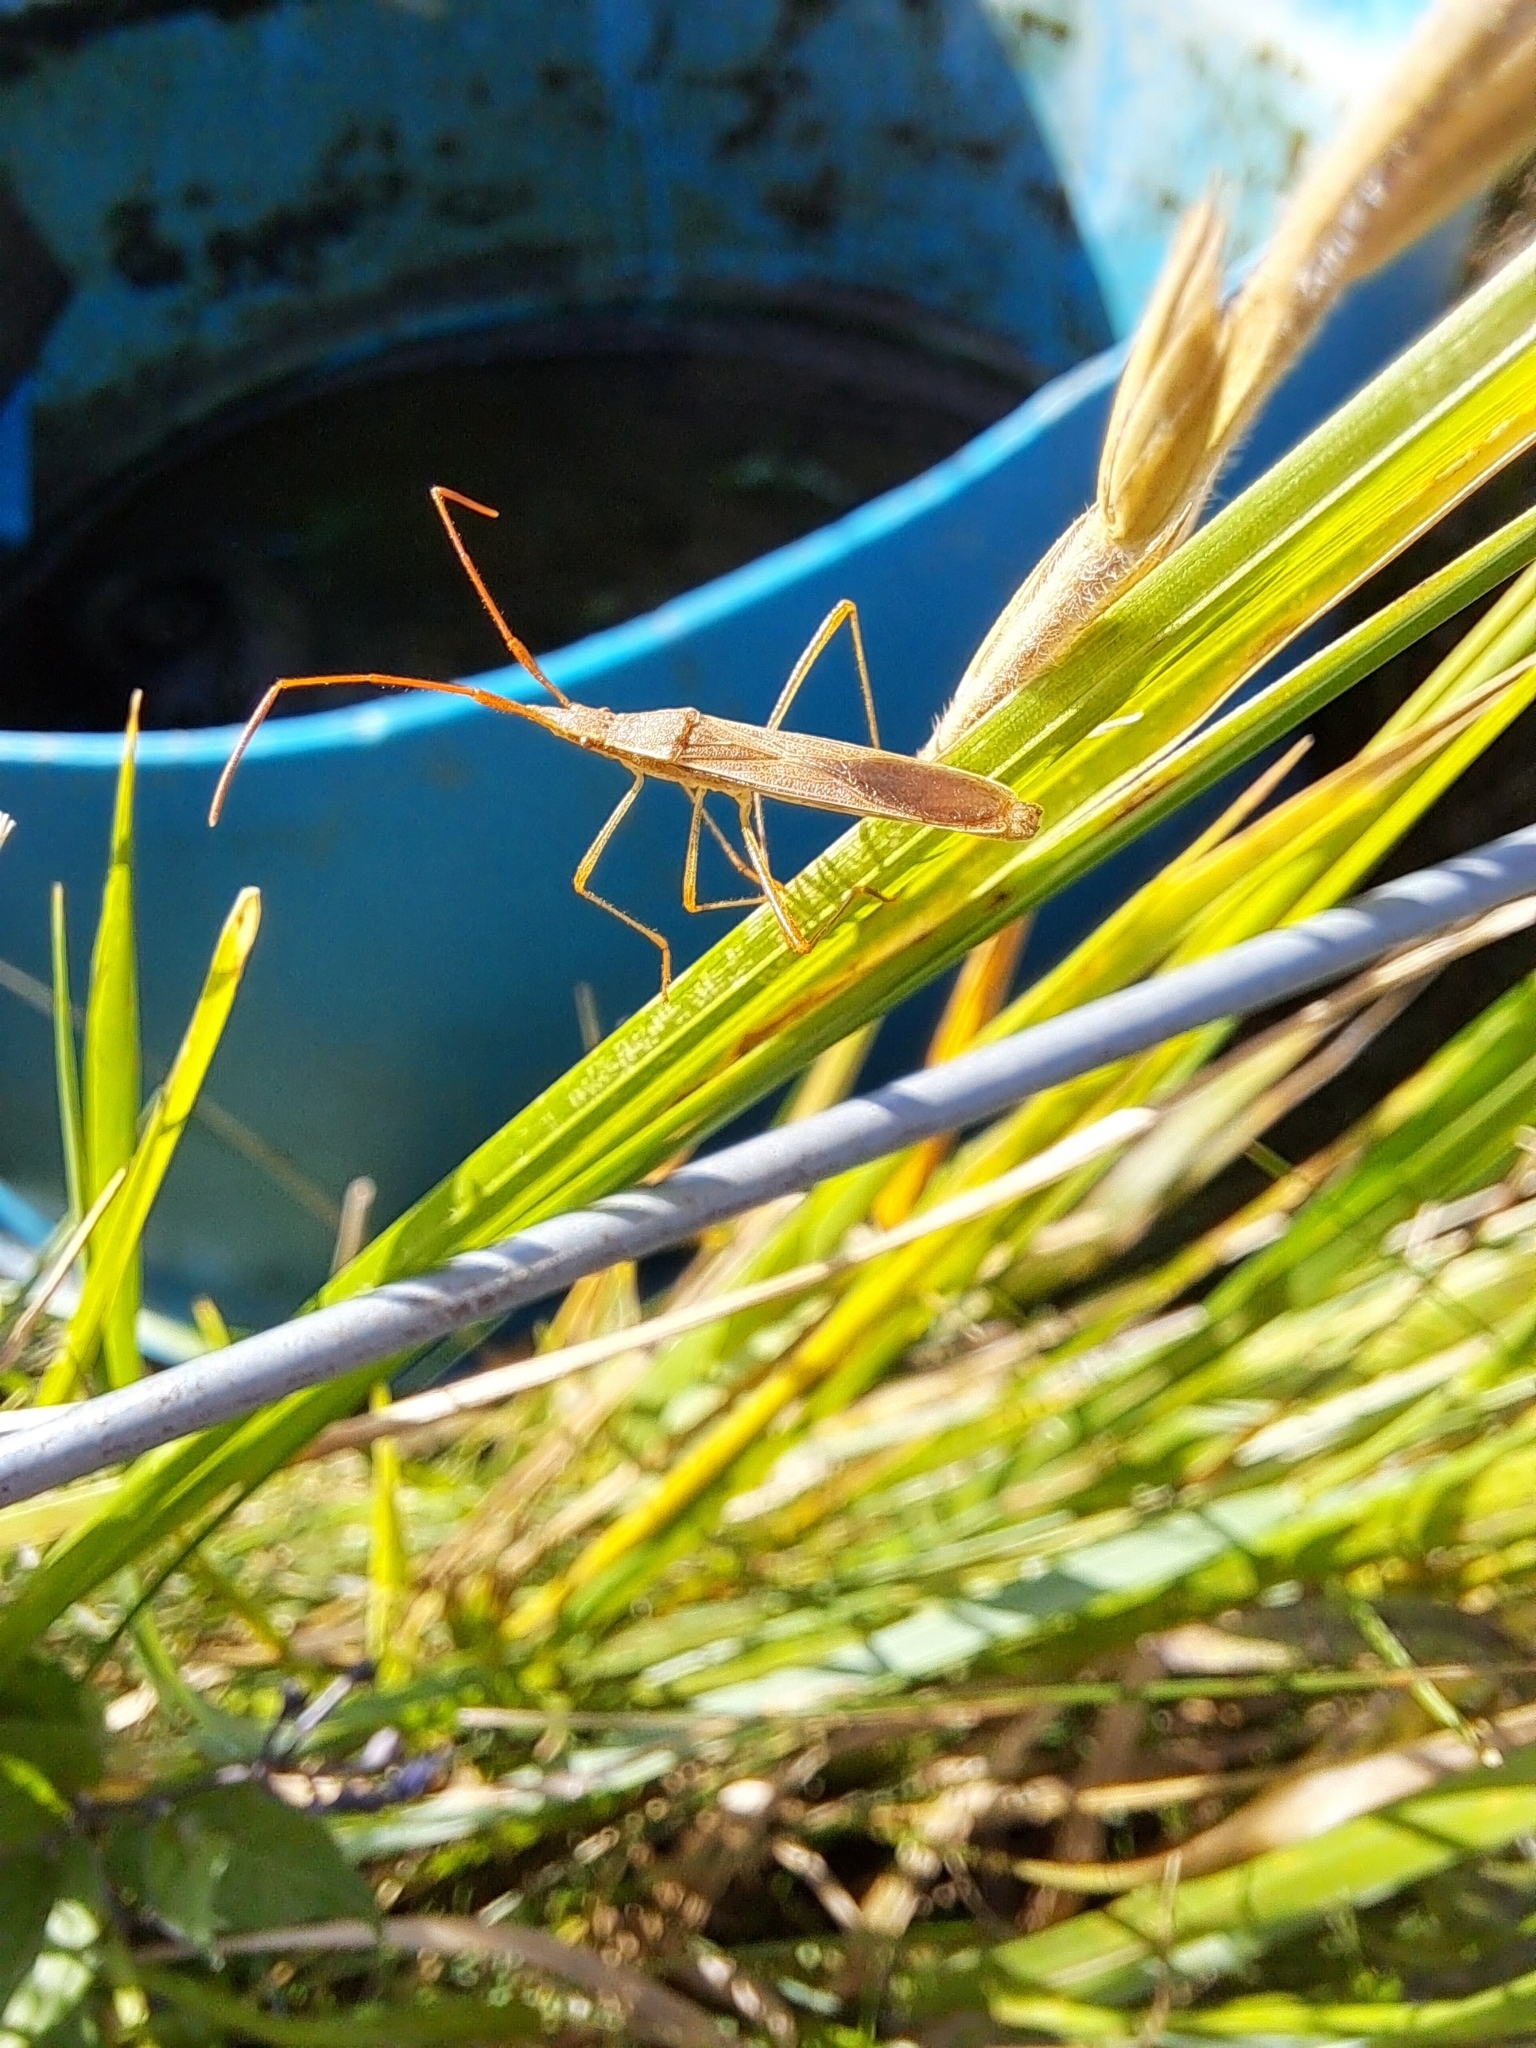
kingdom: Animalia
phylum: Arthropoda
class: Insecta
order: Hemiptera
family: Alydidae
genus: Protenor
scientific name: Protenor belfragei
